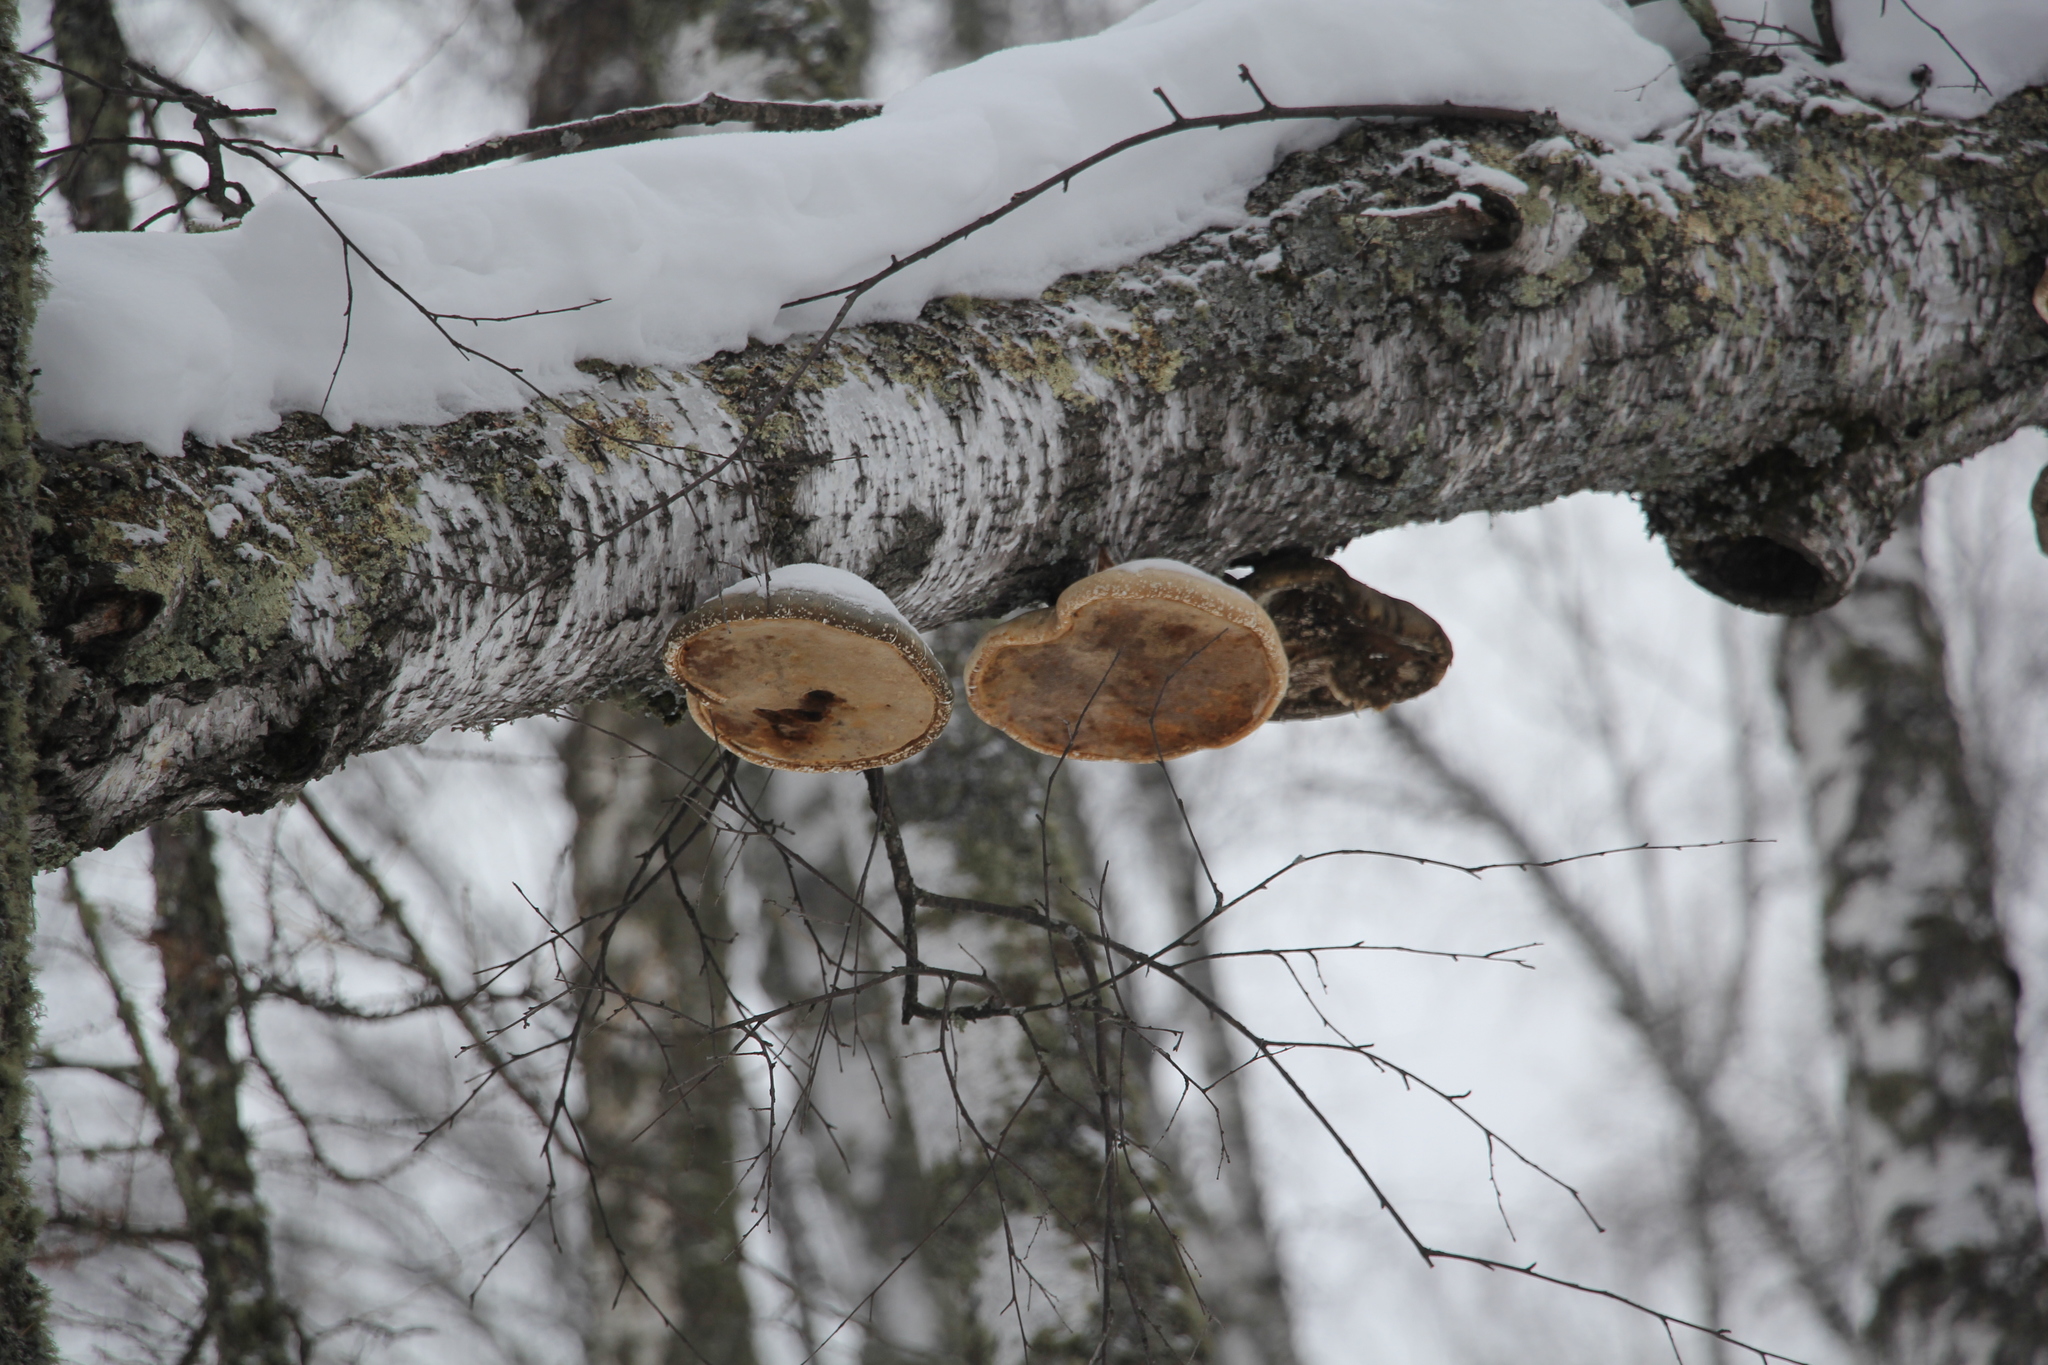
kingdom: Fungi
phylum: Basidiomycota
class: Agaricomycetes
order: Polyporales
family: Fomitopsidaceae
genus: Fomitopsis
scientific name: Fomitopsis betulina
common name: Birch polypore
